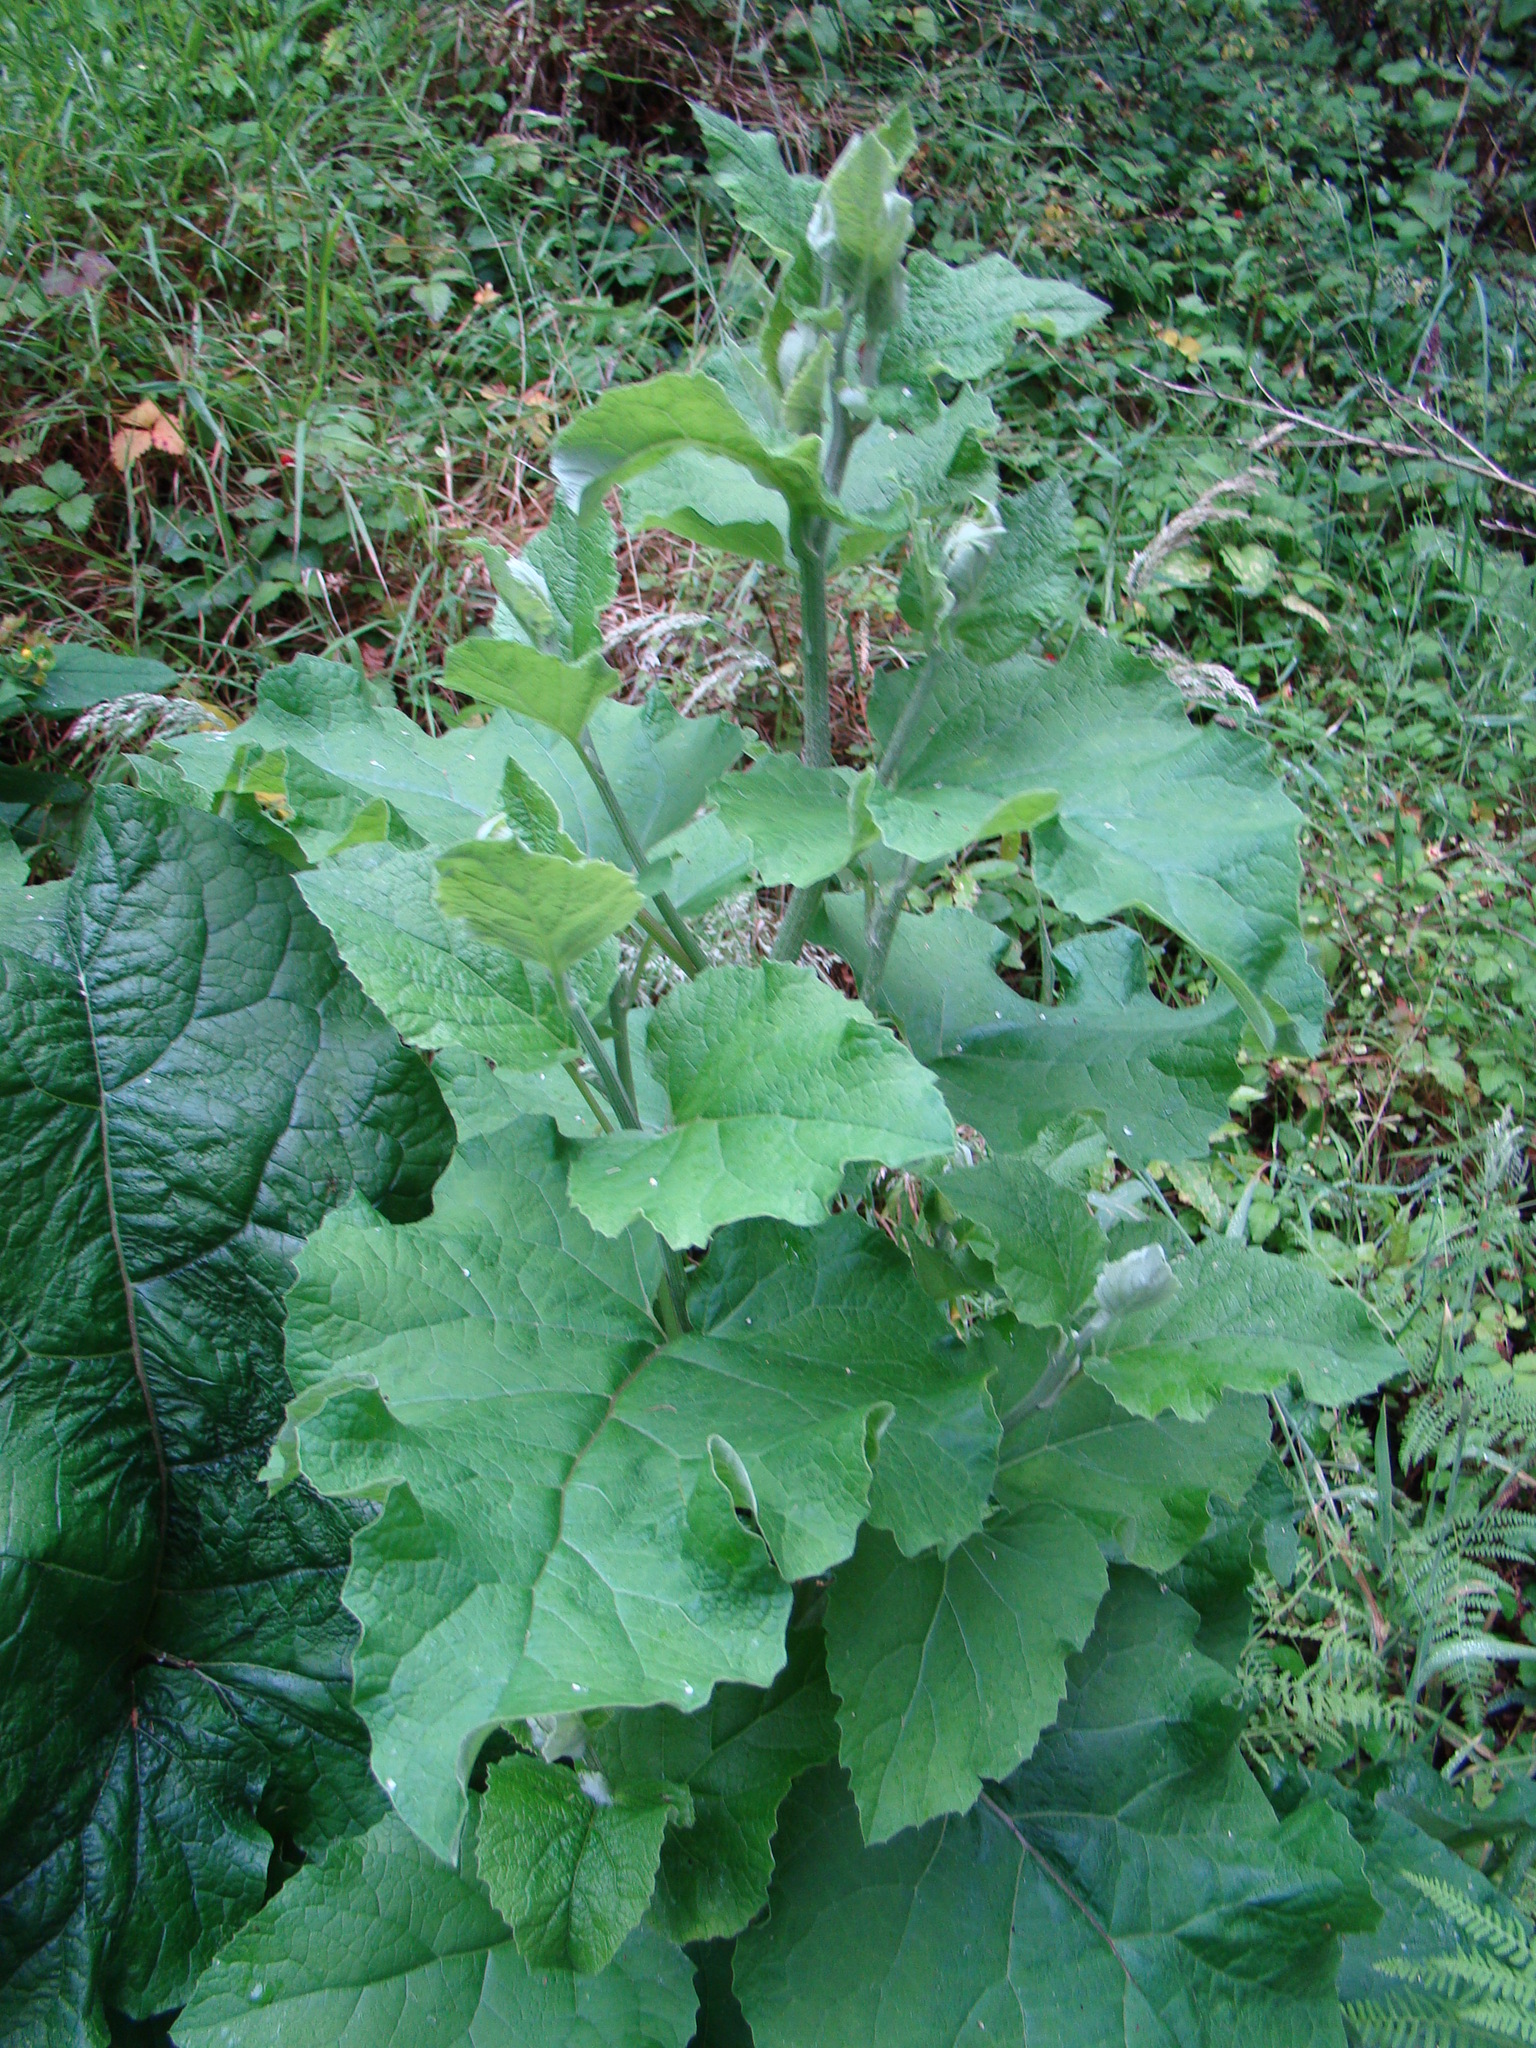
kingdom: Plantae
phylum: Tracheophyta
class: Magnoliopsida
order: Asterales
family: Asteraceae
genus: Arctium
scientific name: Arctium minus
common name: Lesser burdock
